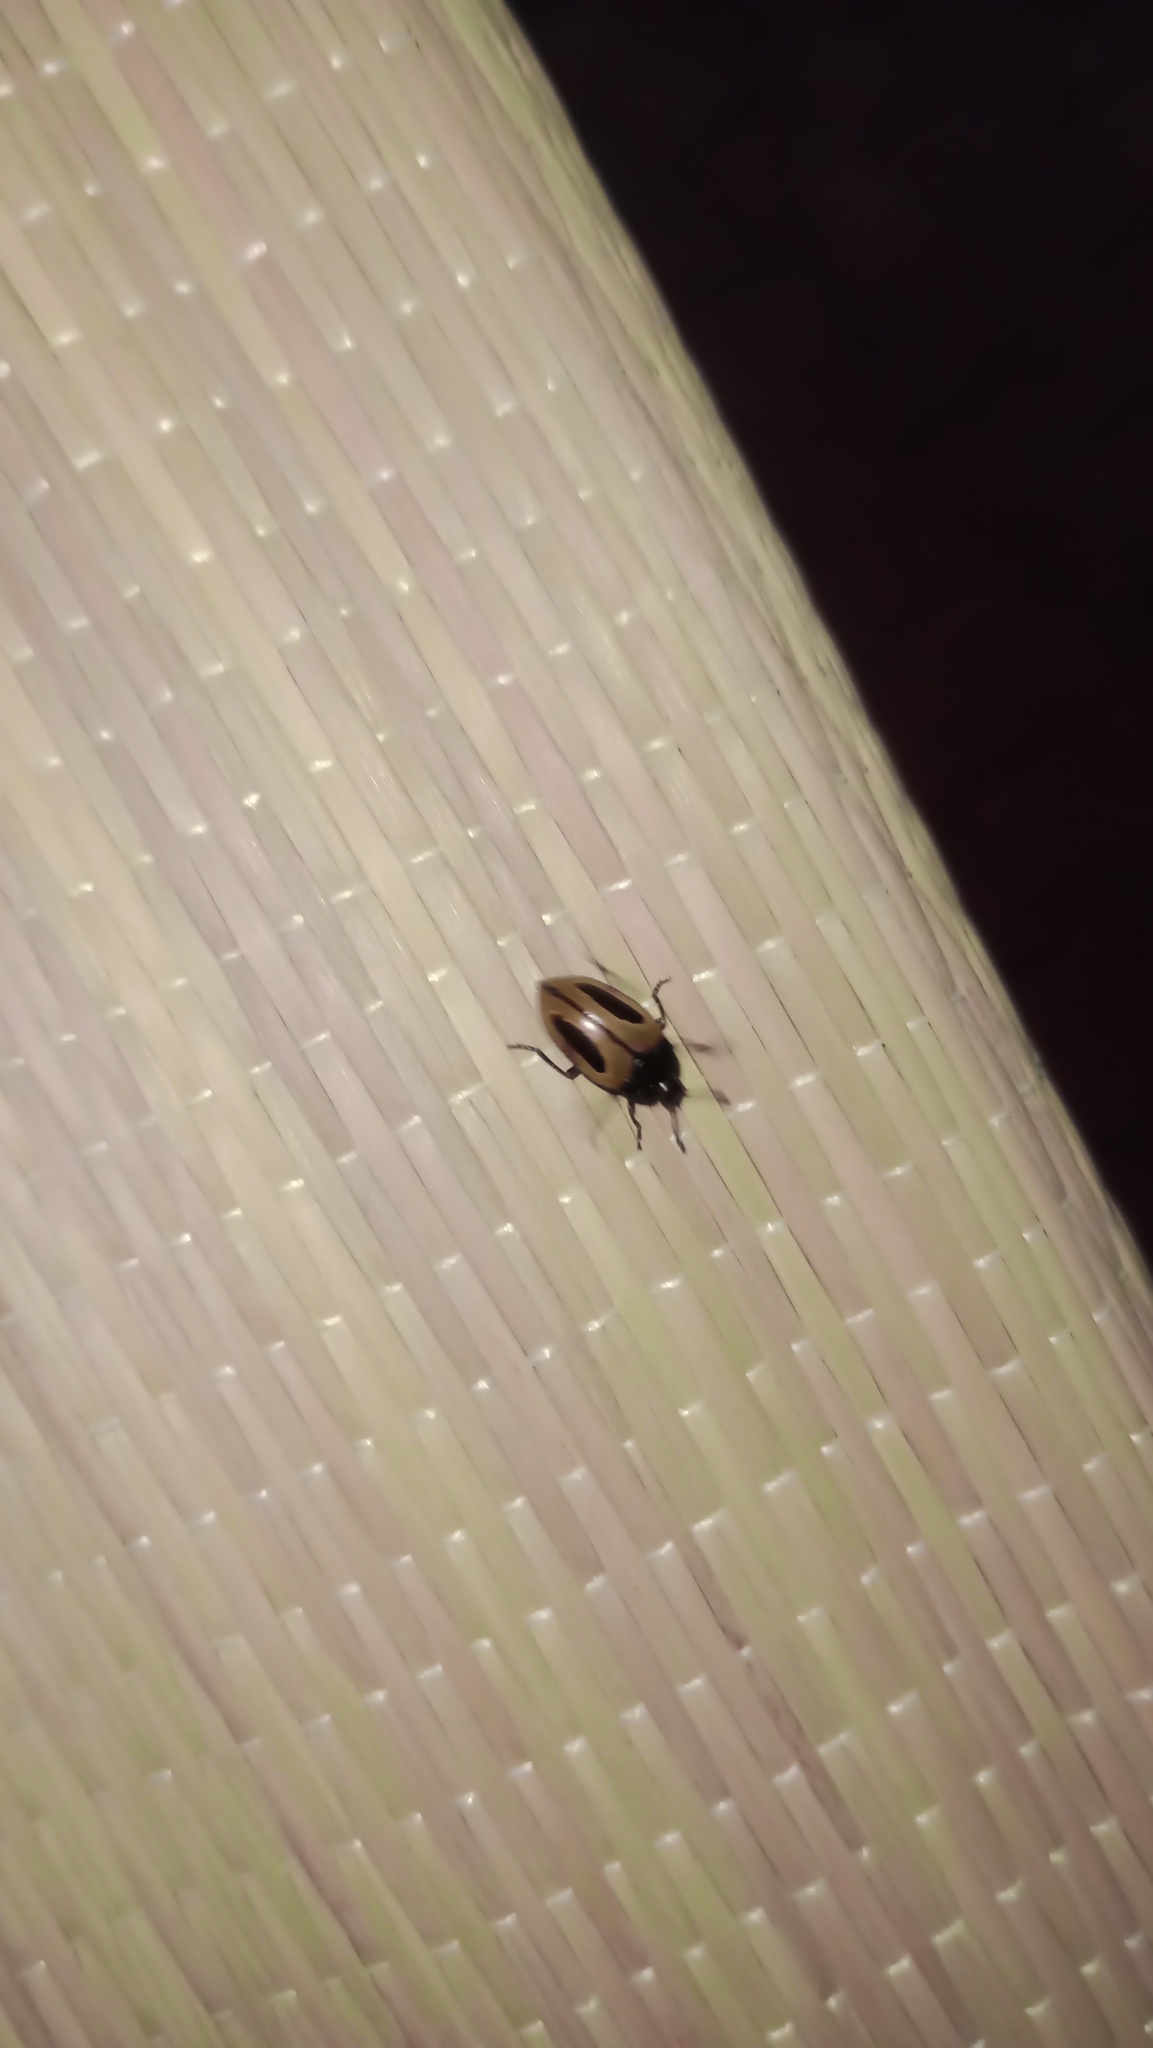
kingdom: Animalia
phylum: Arthropoda
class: Insecta
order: Coleoptera
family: Erotylidae
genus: Iphiclus
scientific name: Iphiclus
